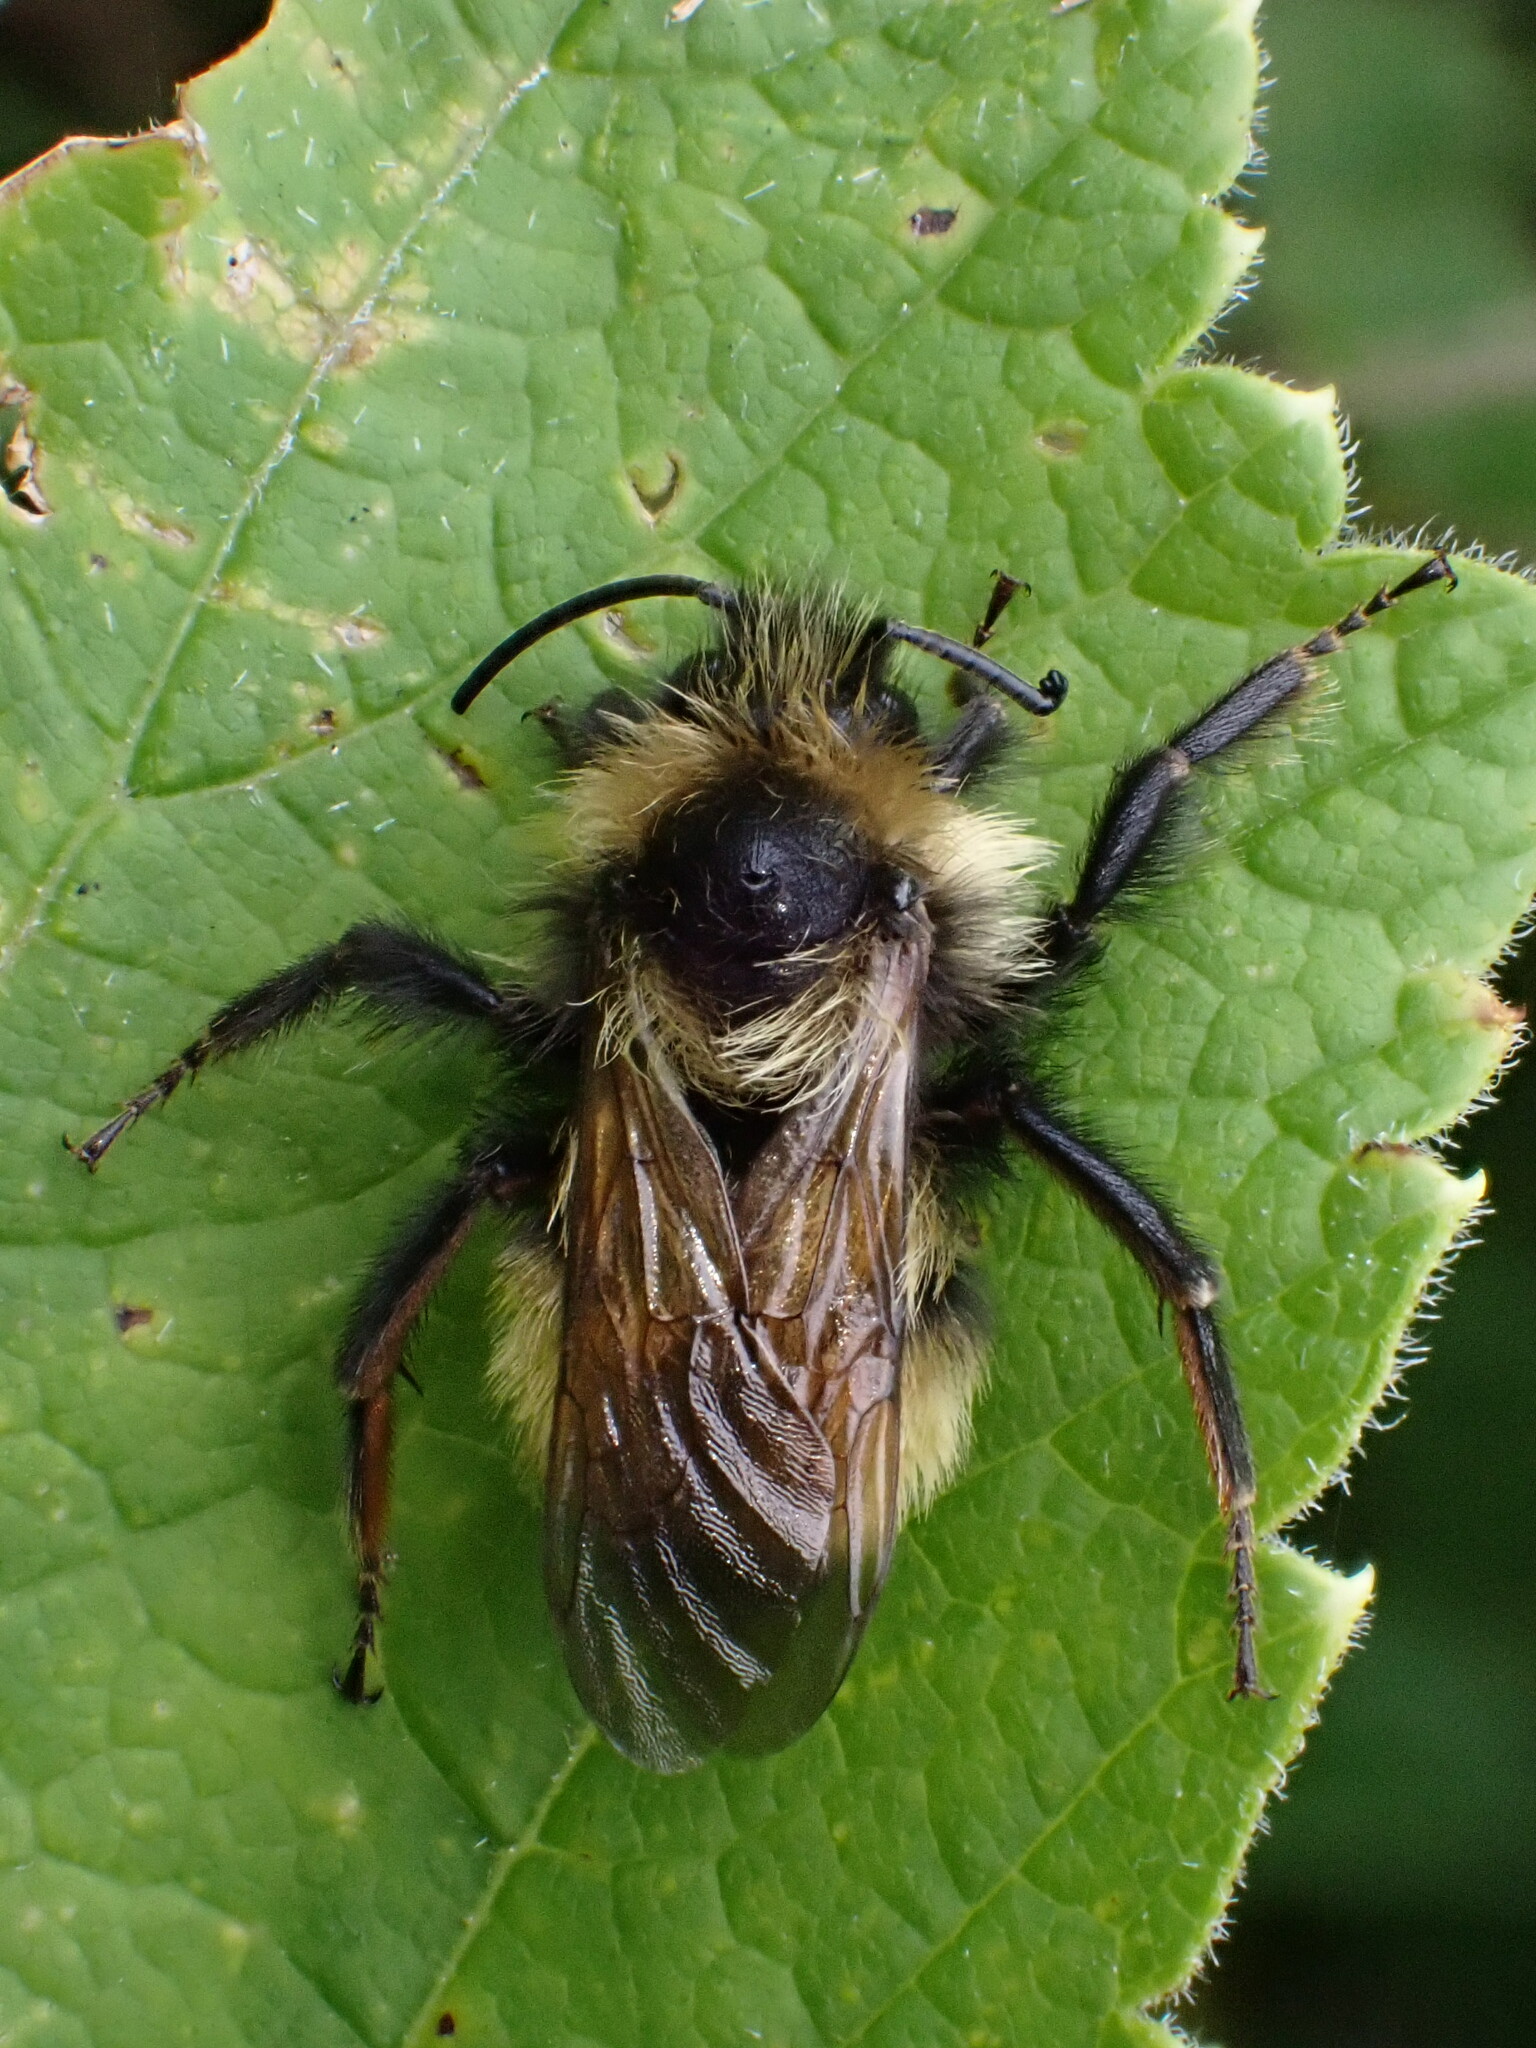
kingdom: Animalia
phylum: Arthropoda
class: Insecta
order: Hymenoptera
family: Apidae
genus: Bombus
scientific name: Bombus flavidus
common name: Fernald cuckoo bumble bee
